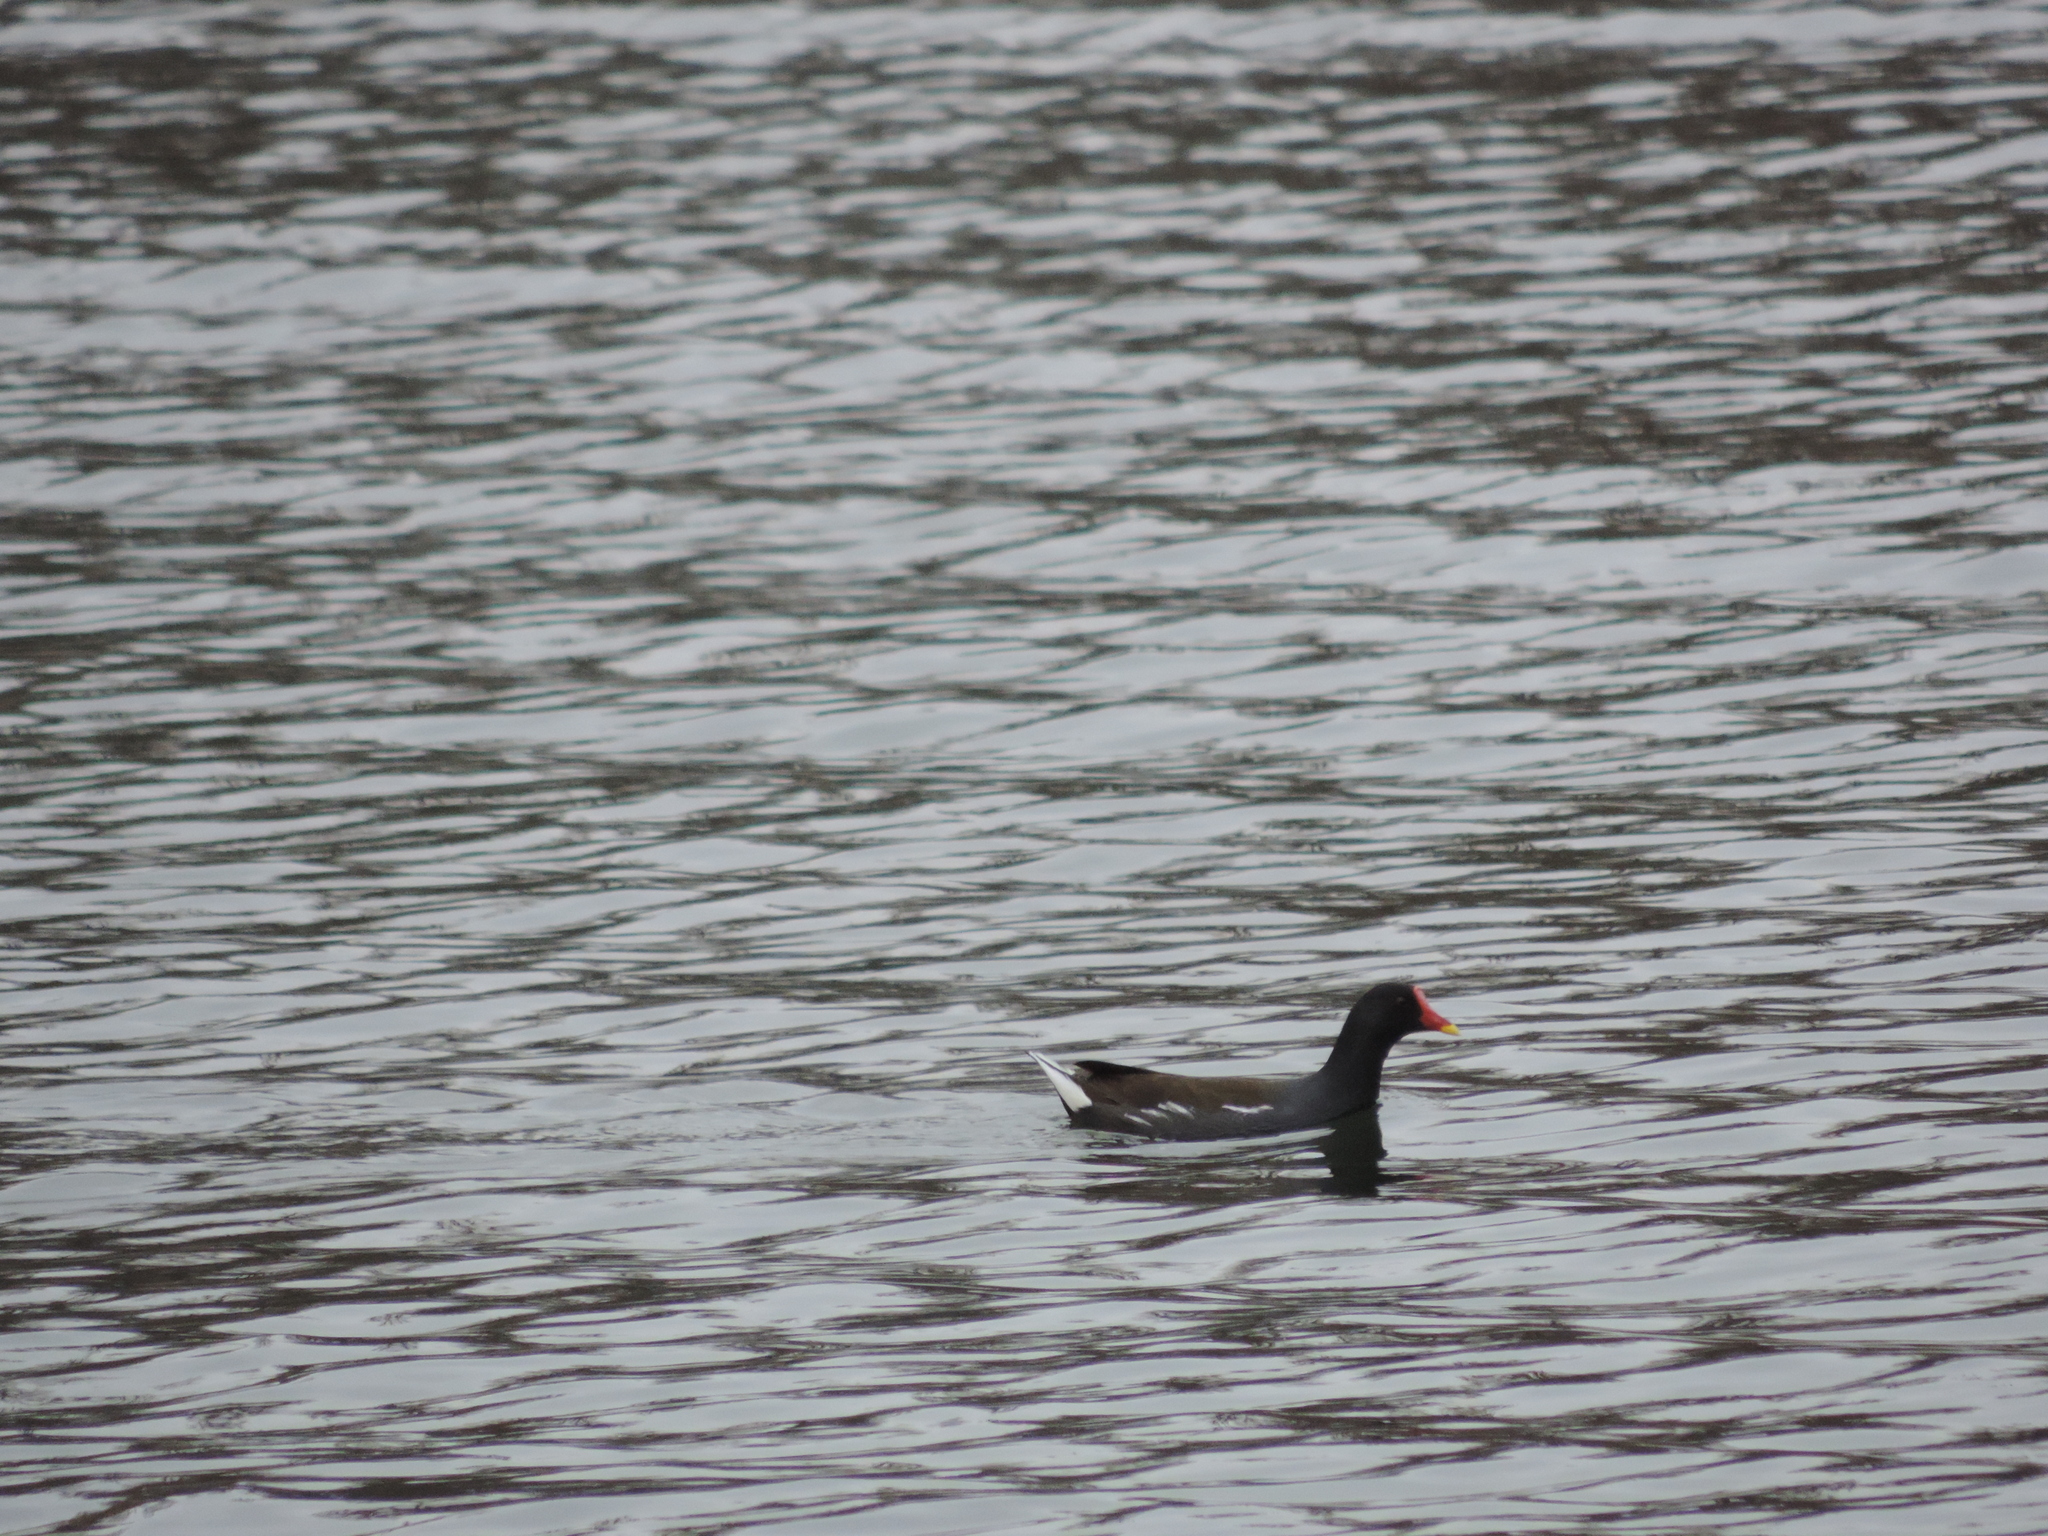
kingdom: Animalia
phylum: Chordata
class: Aves
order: Gruiformes
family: Rallidae
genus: Gallinula
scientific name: Gallinula chloropus
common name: Common moorhen
